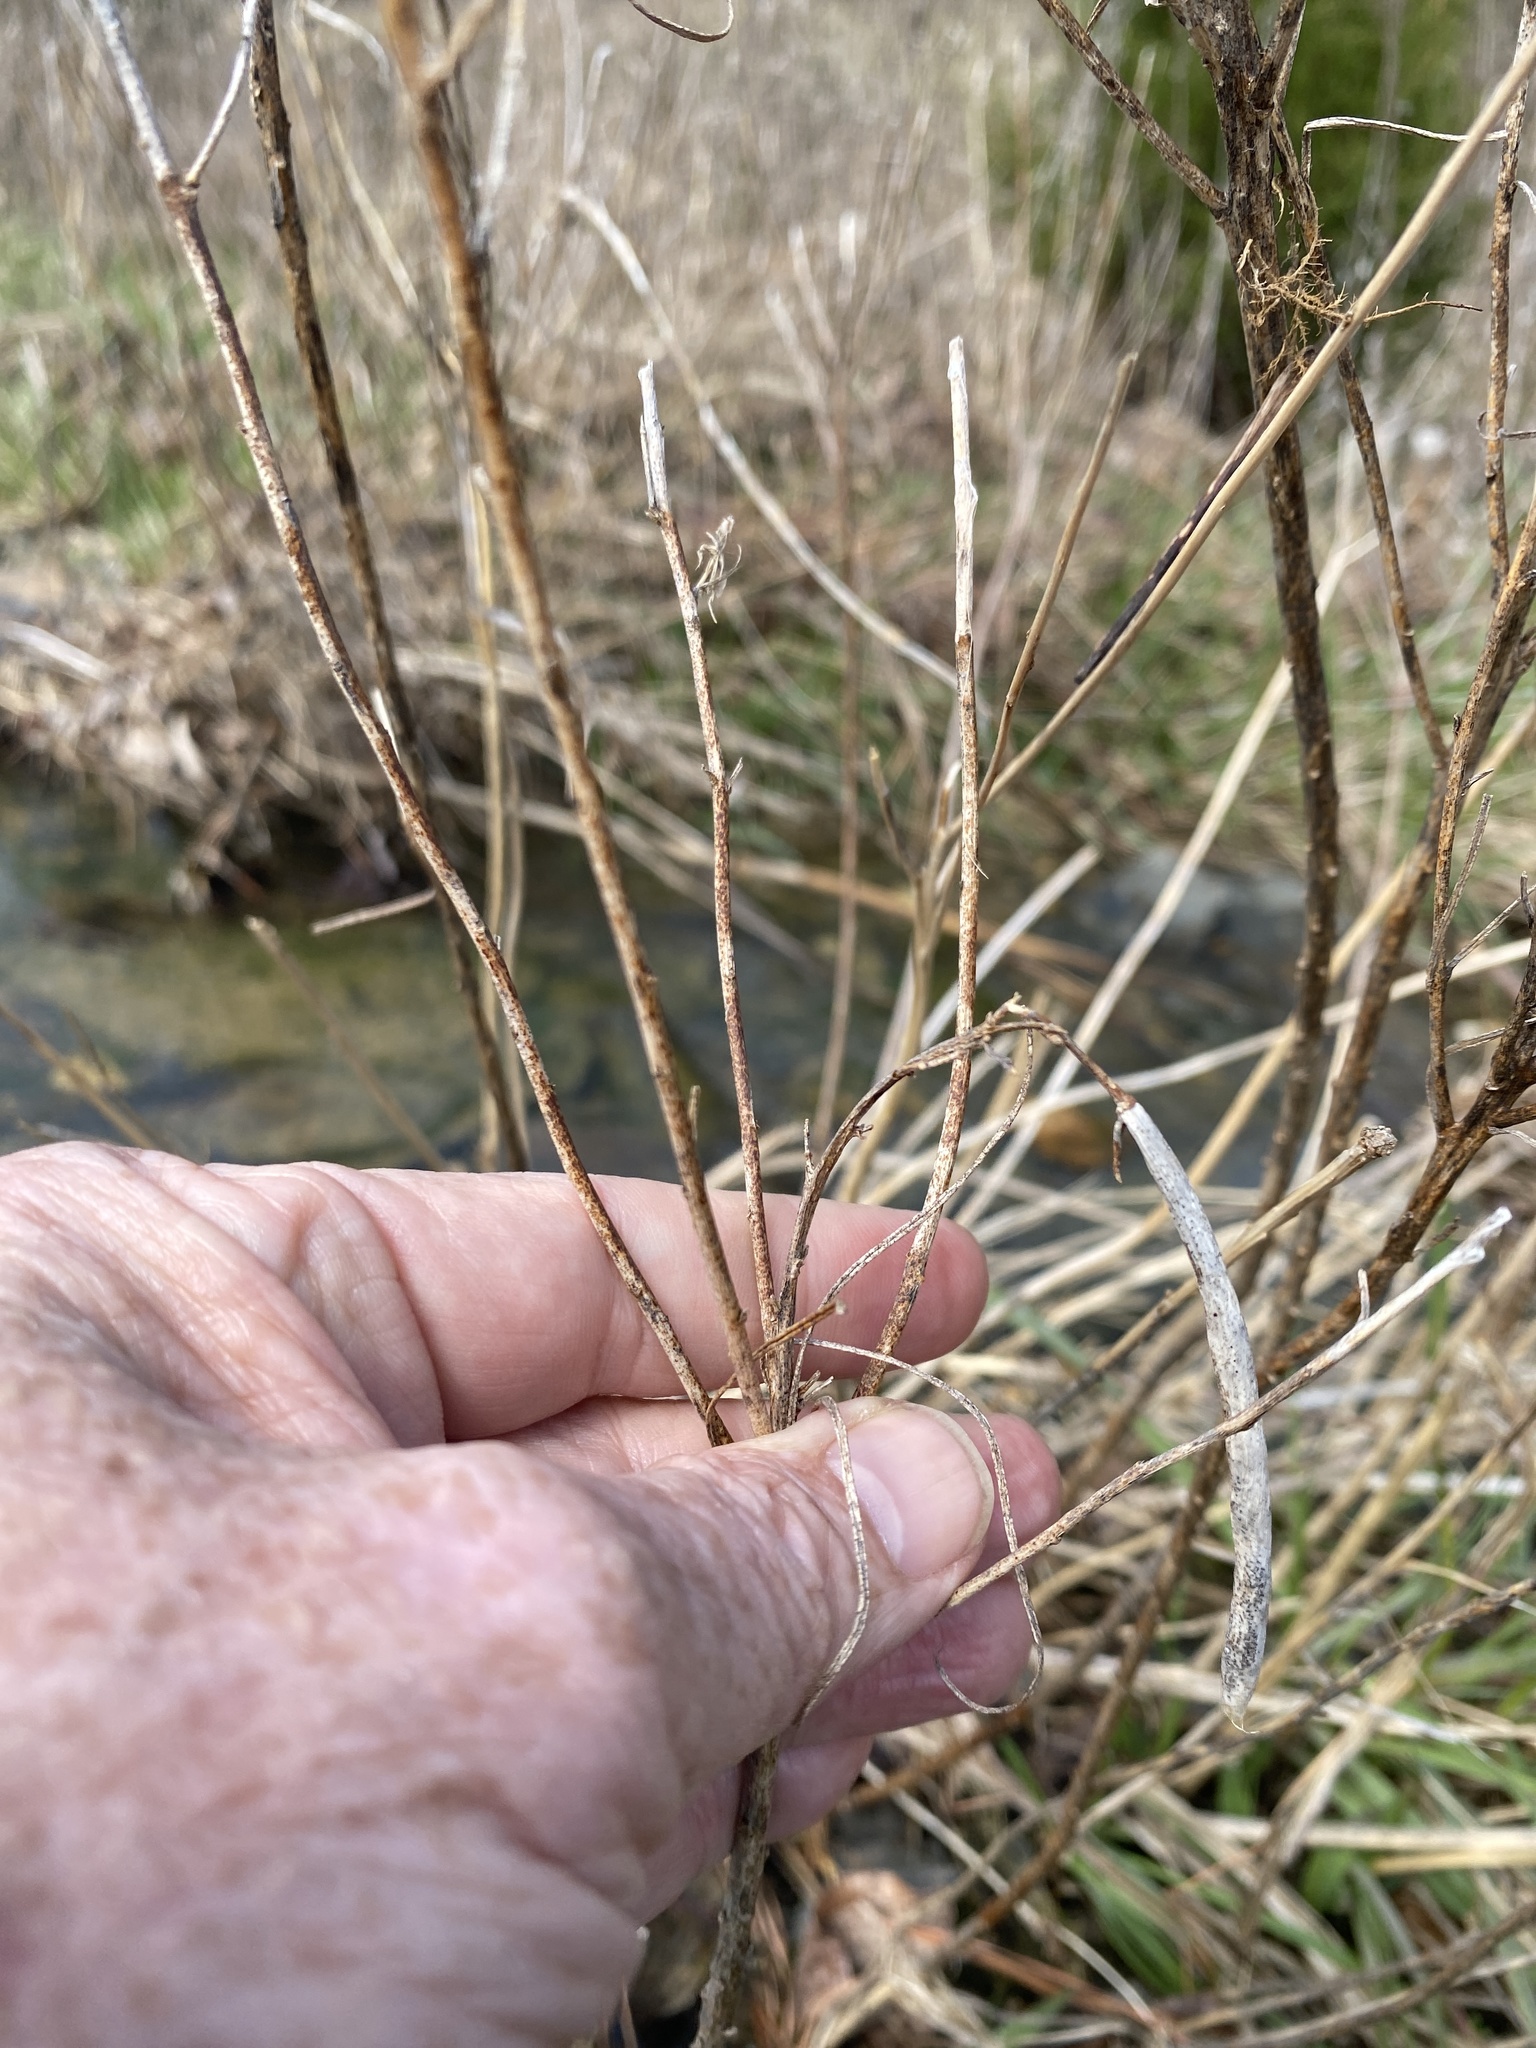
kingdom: Plantae
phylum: Tracheophyta
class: Magnoliopsida
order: Gentianales
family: Apocynaceae
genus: Amsonia
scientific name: Amsonia hubrichtii
